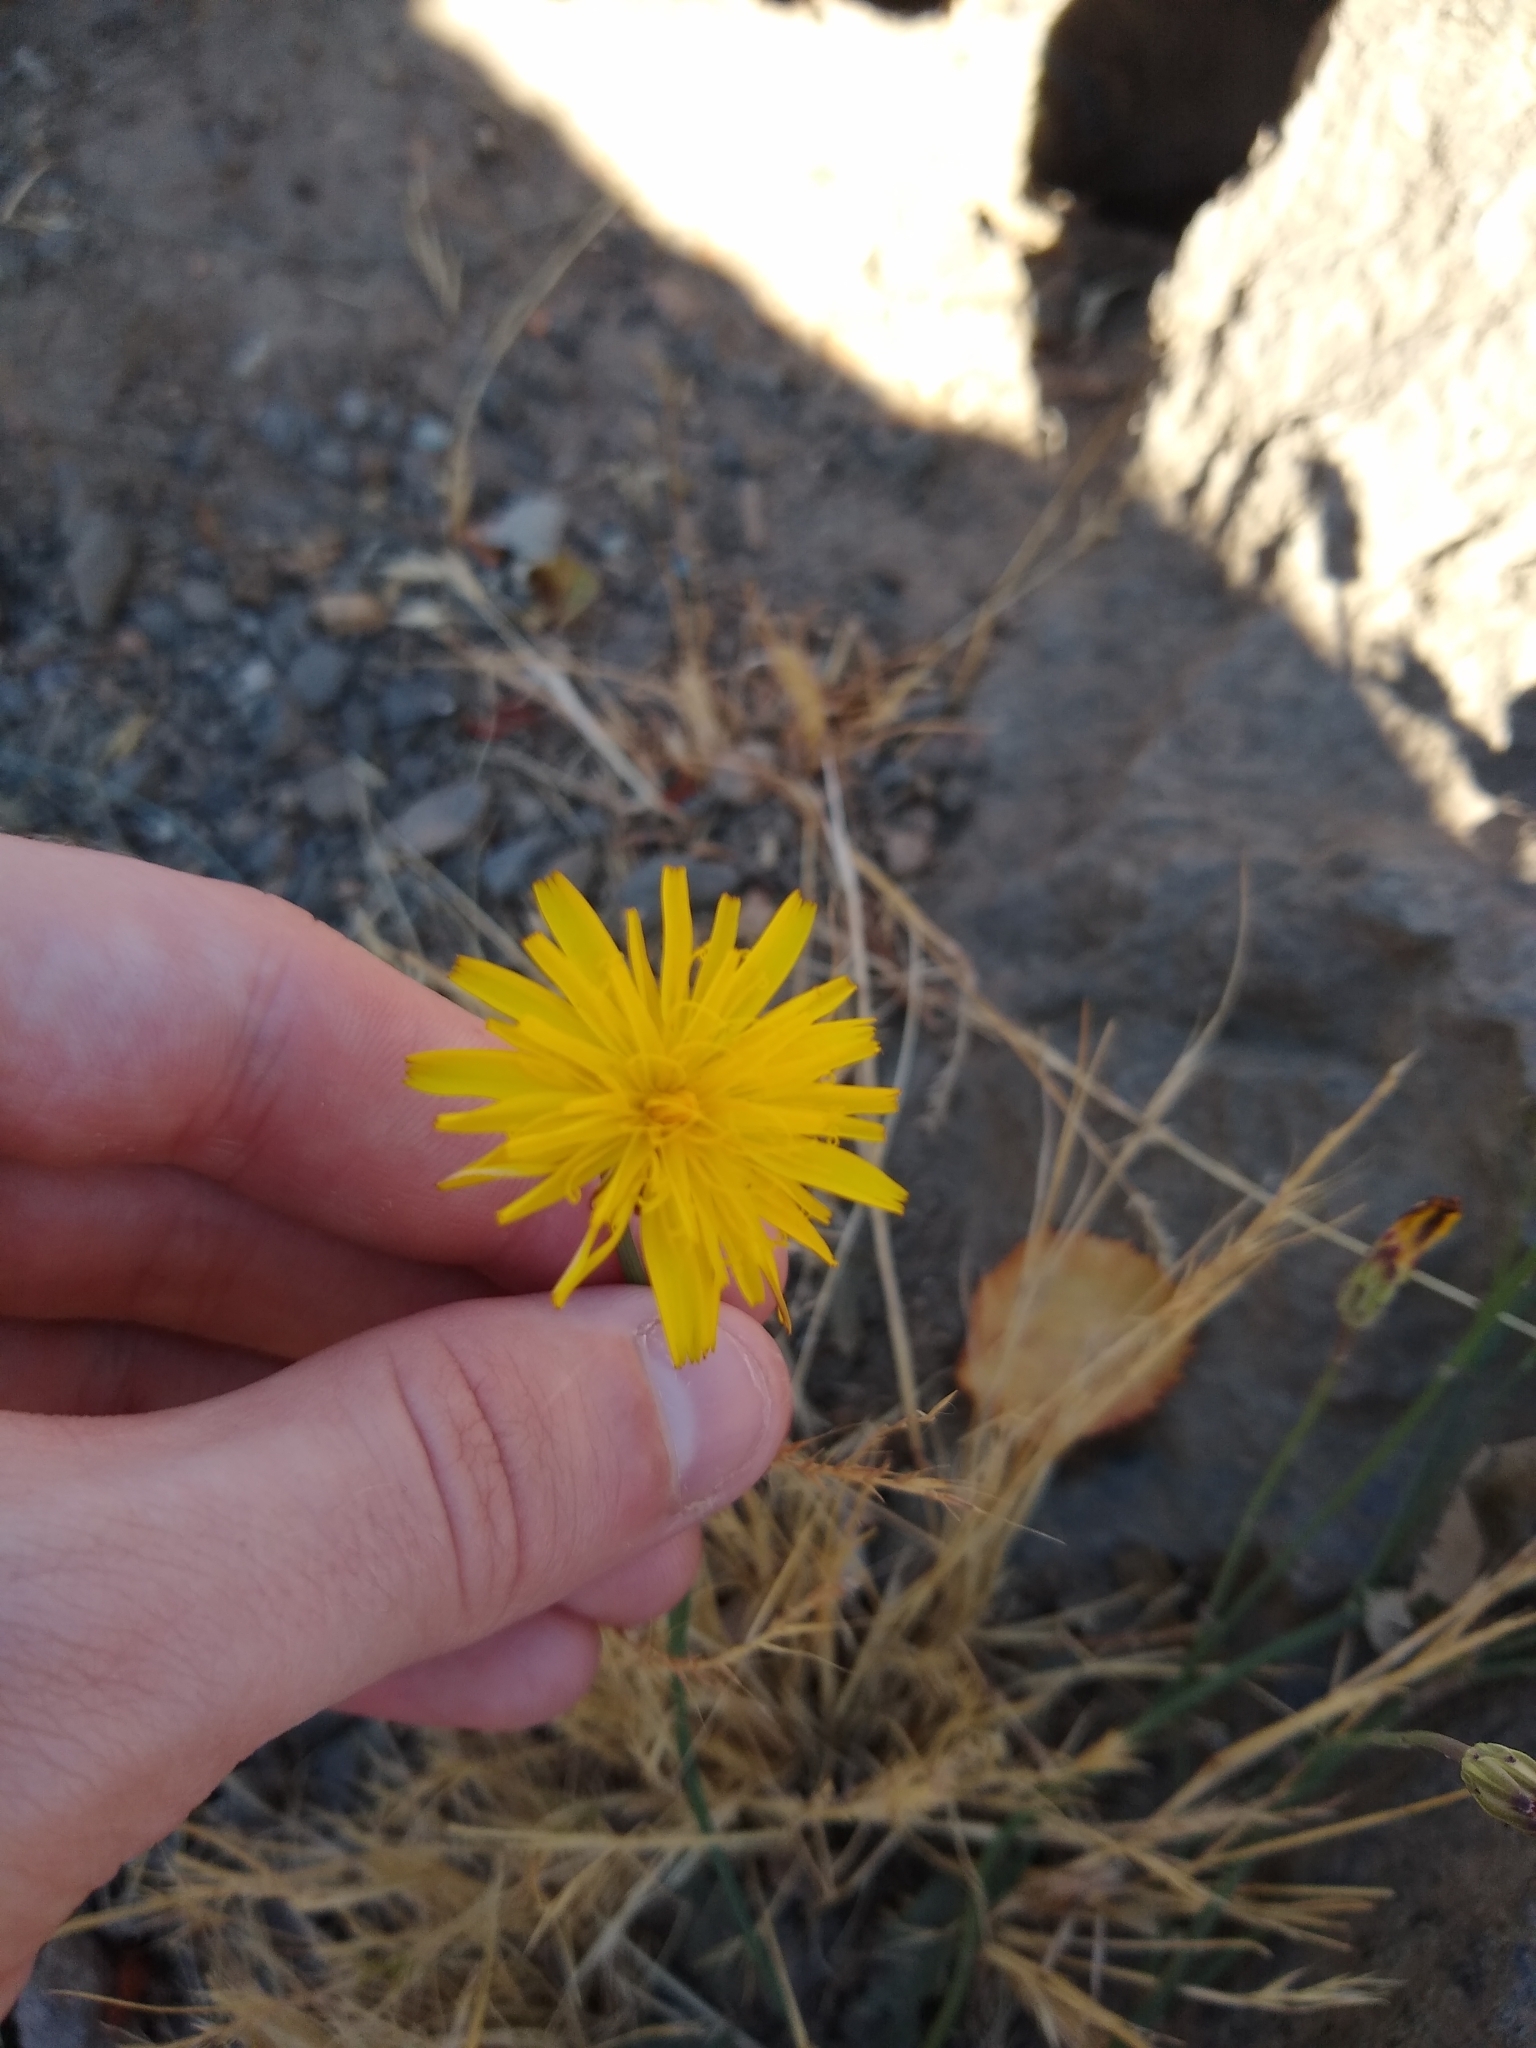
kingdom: Plantae
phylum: Tracheophyta
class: Magnoliopsida
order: Asterales
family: Asteraceae
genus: Hypochaeris
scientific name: Hypochaeris radicata
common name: Flatweed
